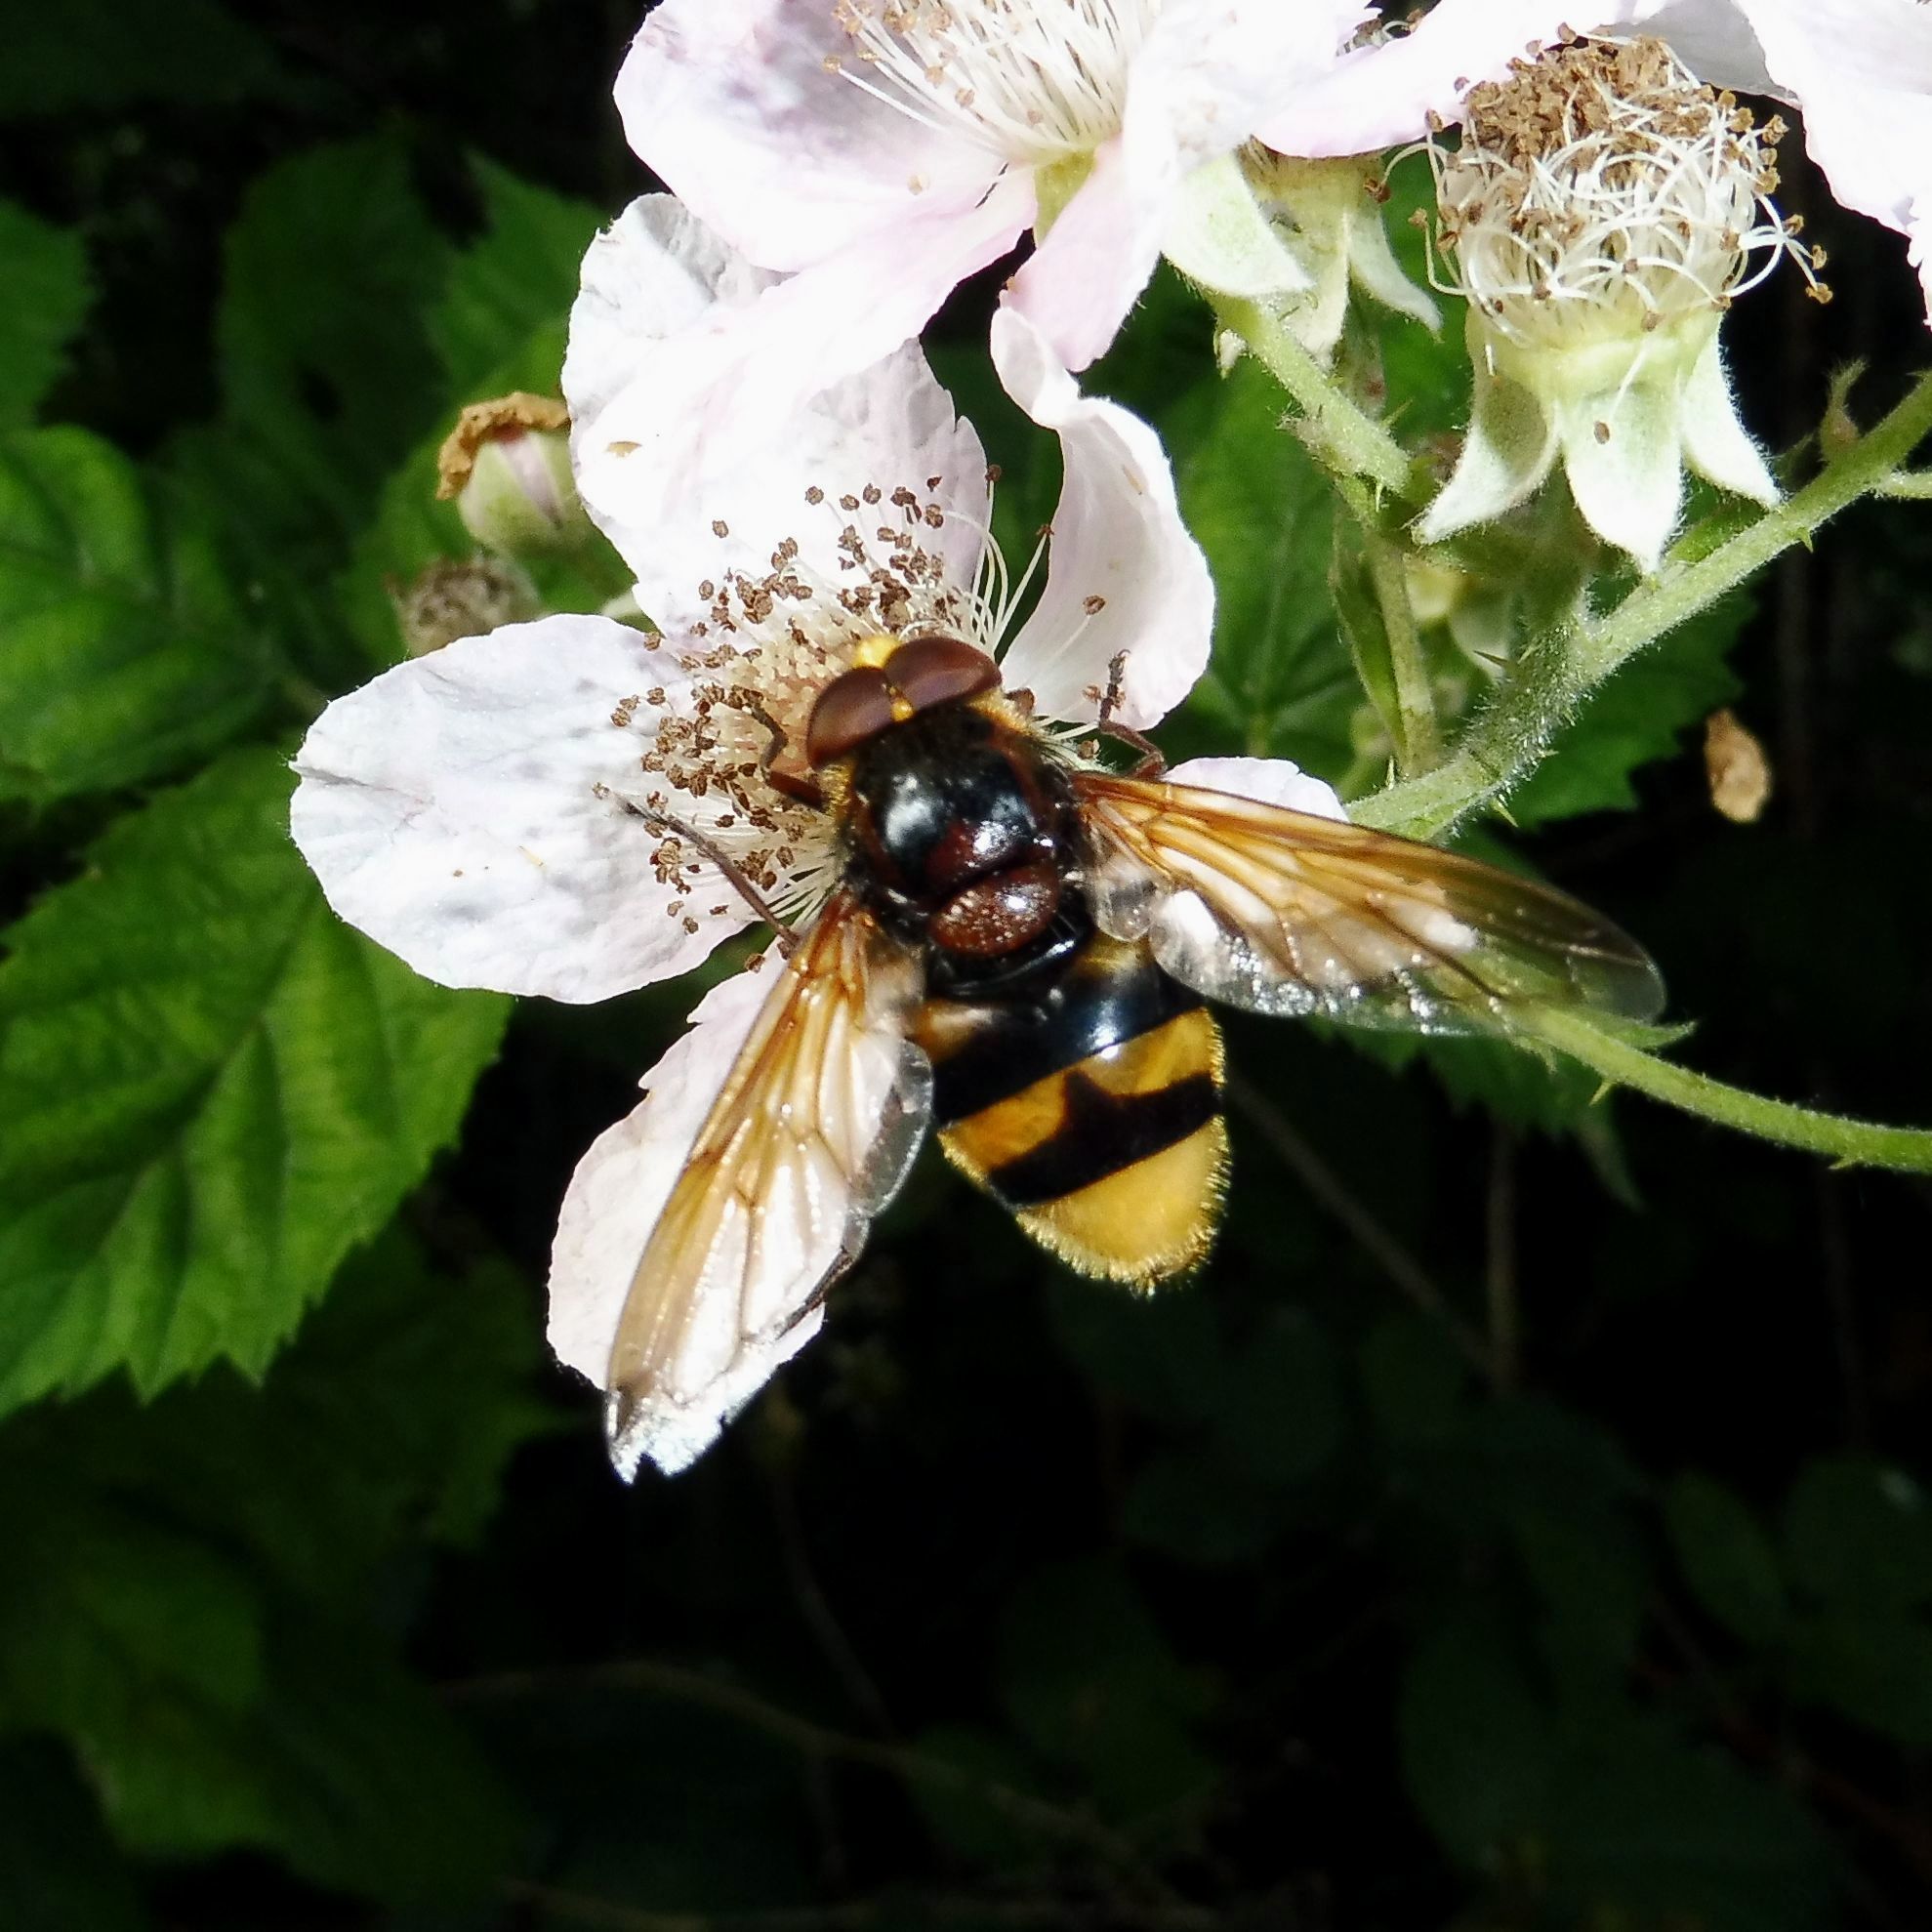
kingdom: Animalia
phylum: Arthropoda
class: Insecta
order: Diptera
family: Syrphidae
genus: Volucella
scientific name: Volucella zonaria
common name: Hornet hoverfly
